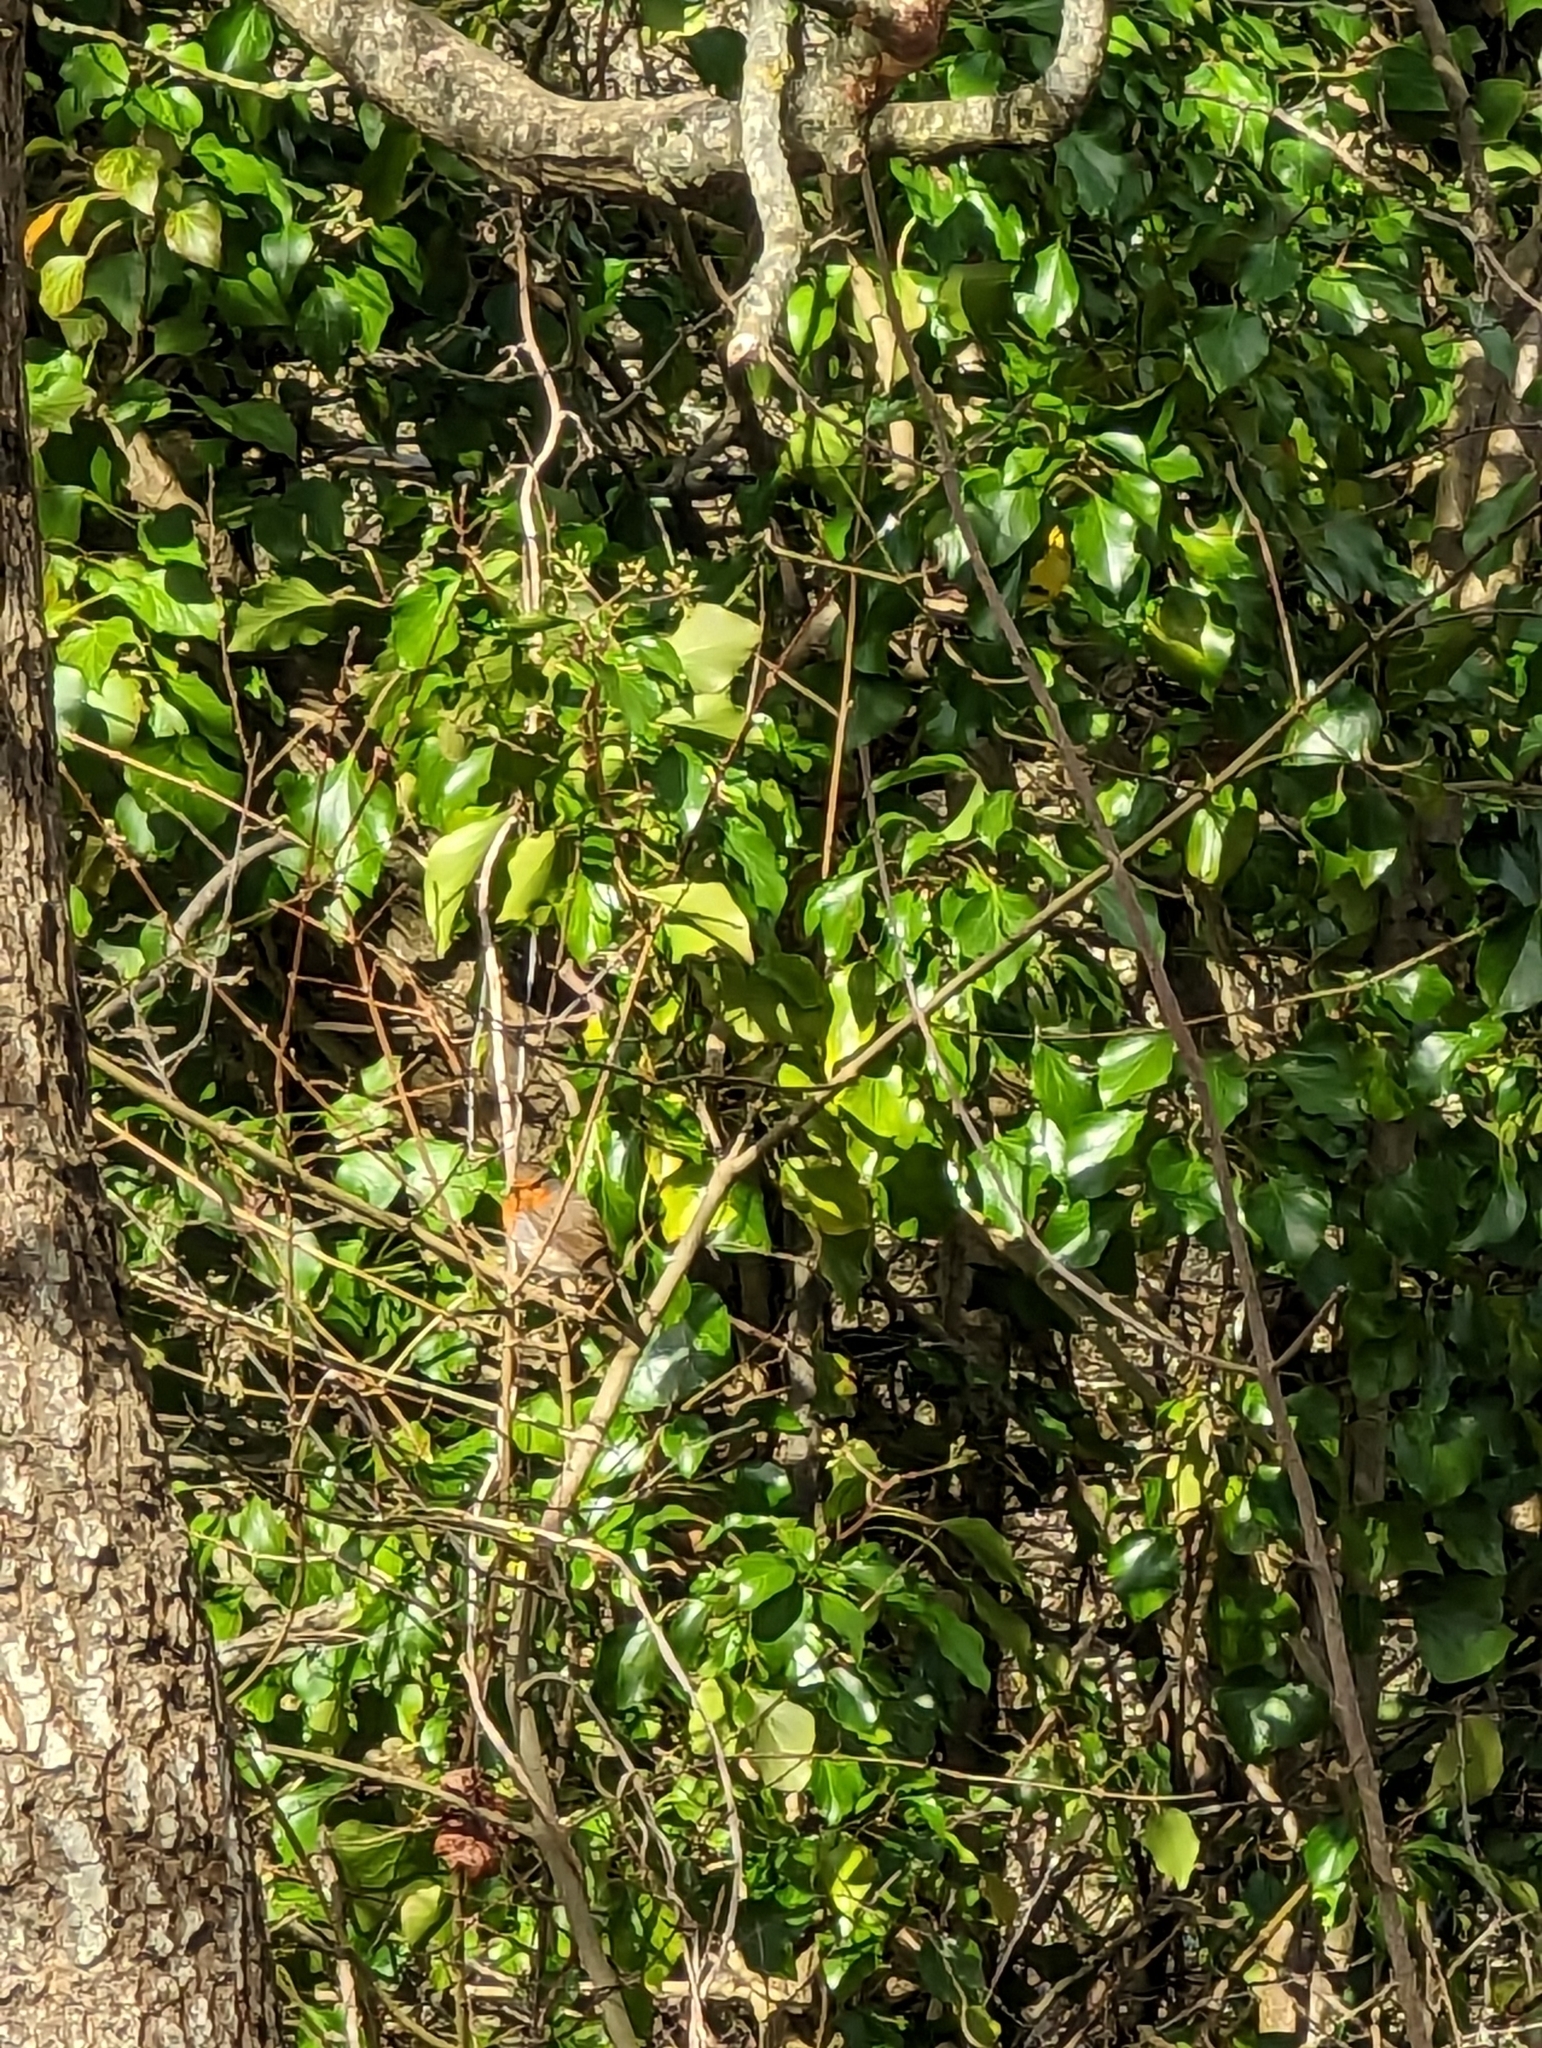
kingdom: Animalia
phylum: Chordata
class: Aves
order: Passeriformes
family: Muscicapidae
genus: Erithacus
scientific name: Erithacus rubecula
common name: European robin
